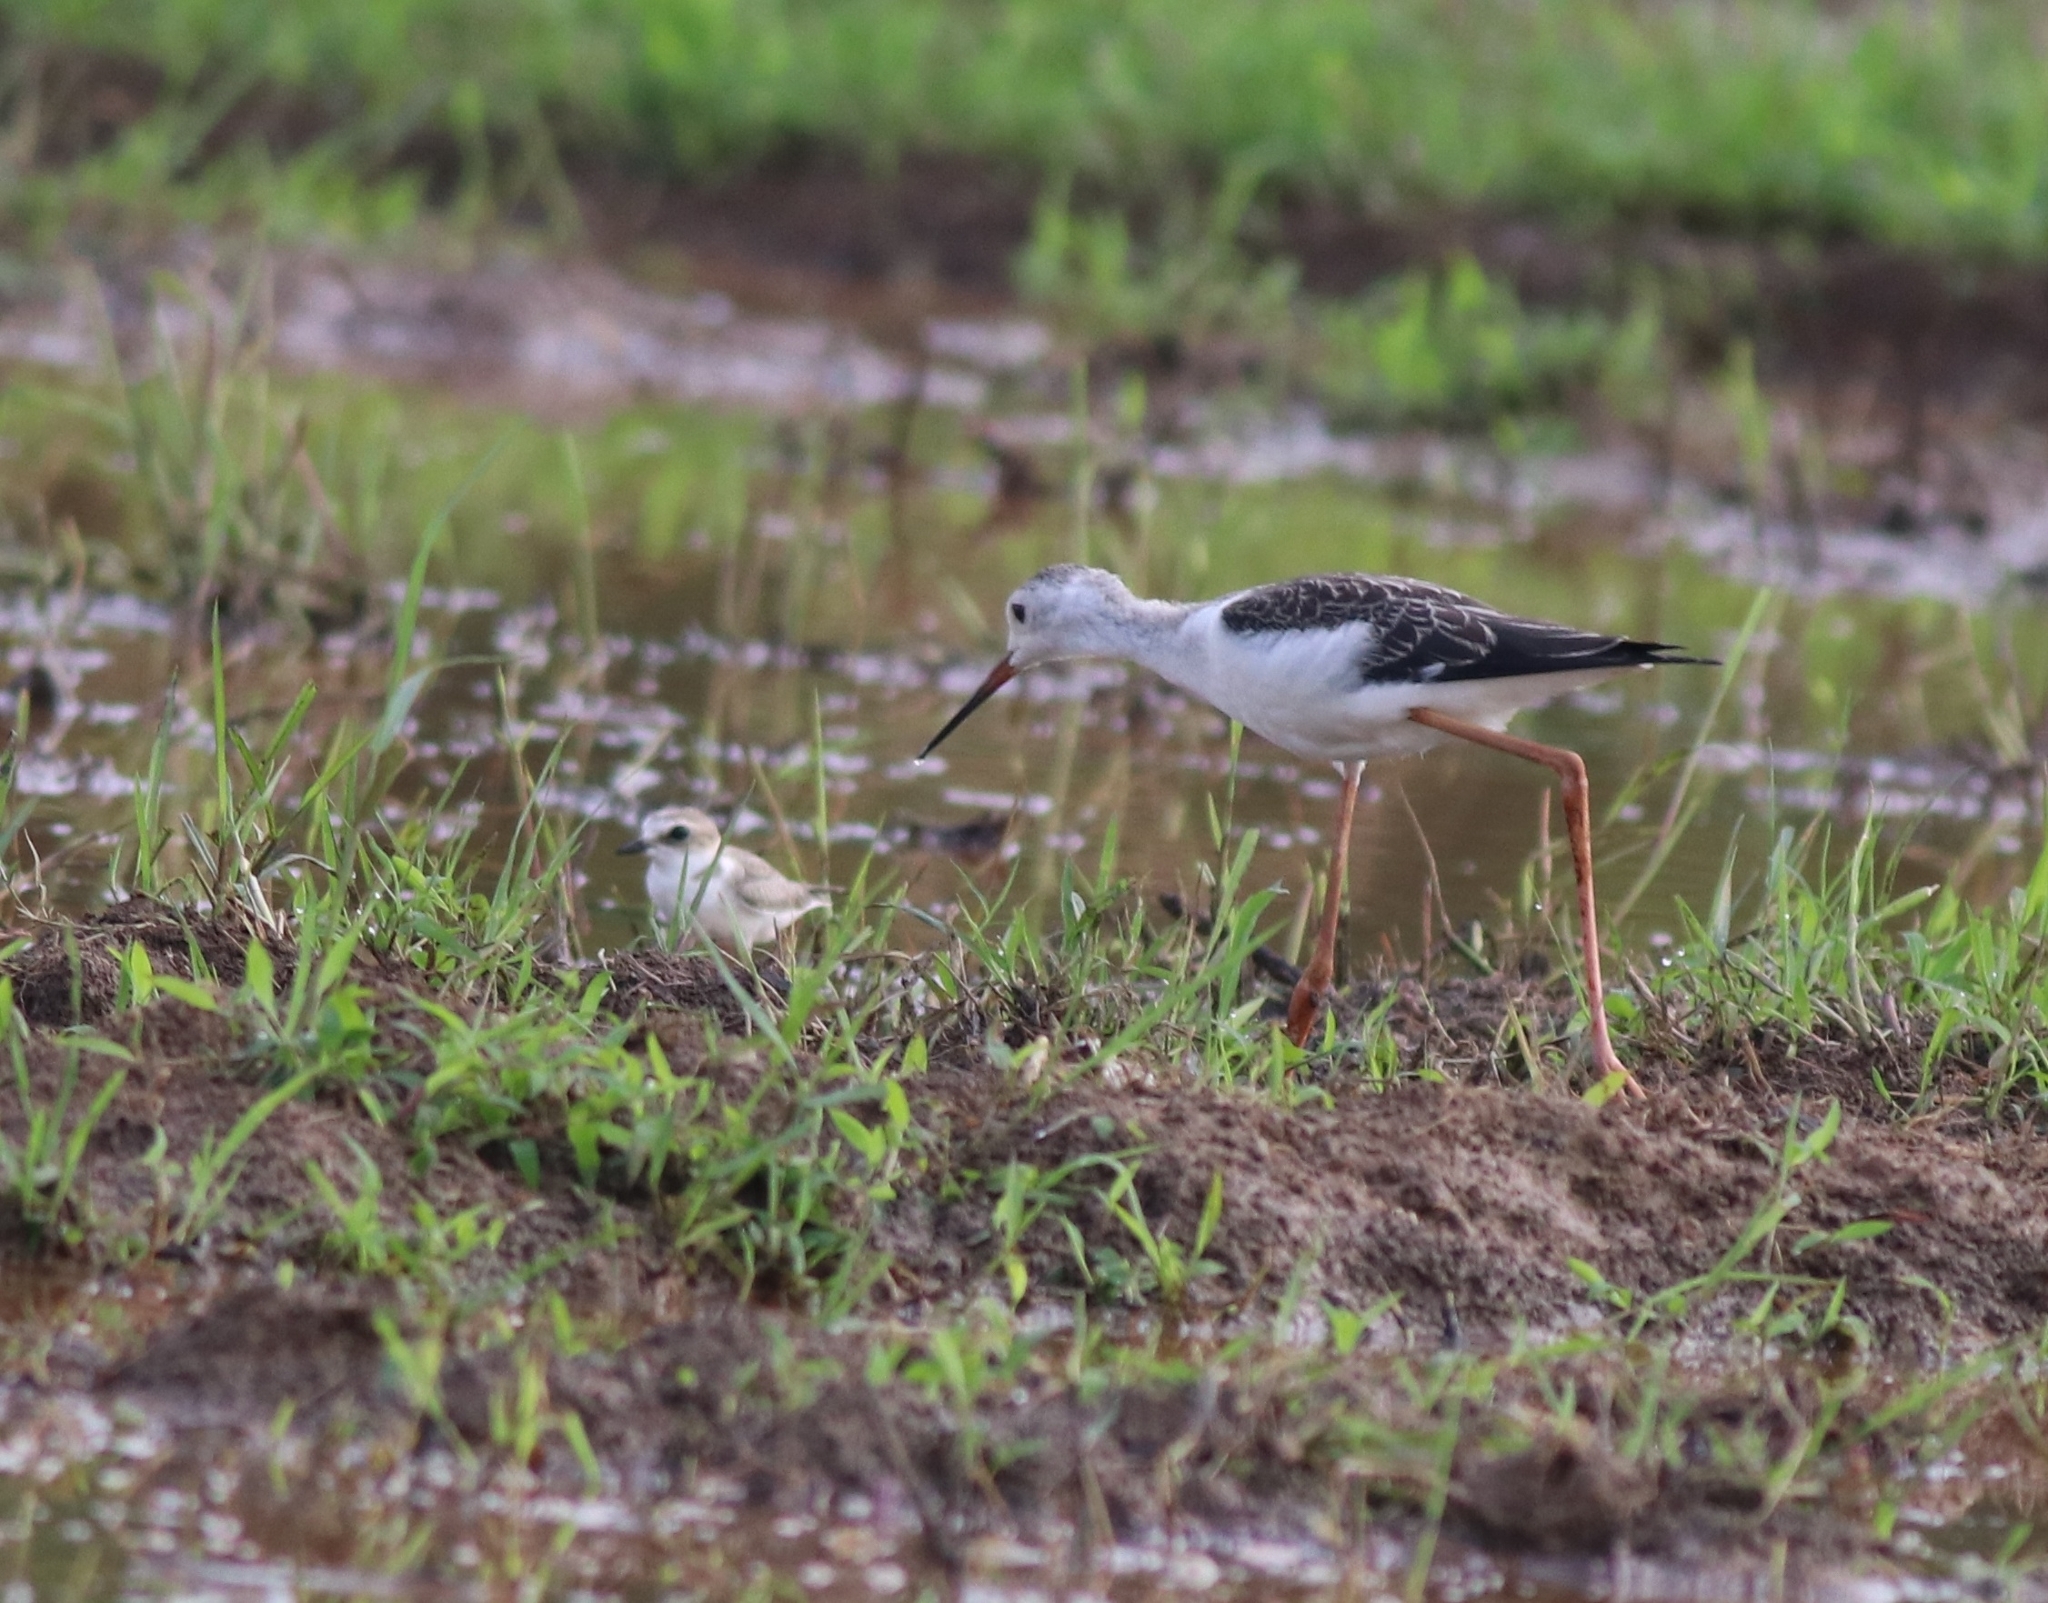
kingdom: Animalia
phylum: Chordata
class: Aves
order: Charadriiformes
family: Recurvirostridae
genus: Himantopus
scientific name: Himantopus himantopus
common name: Black-winged stilt
